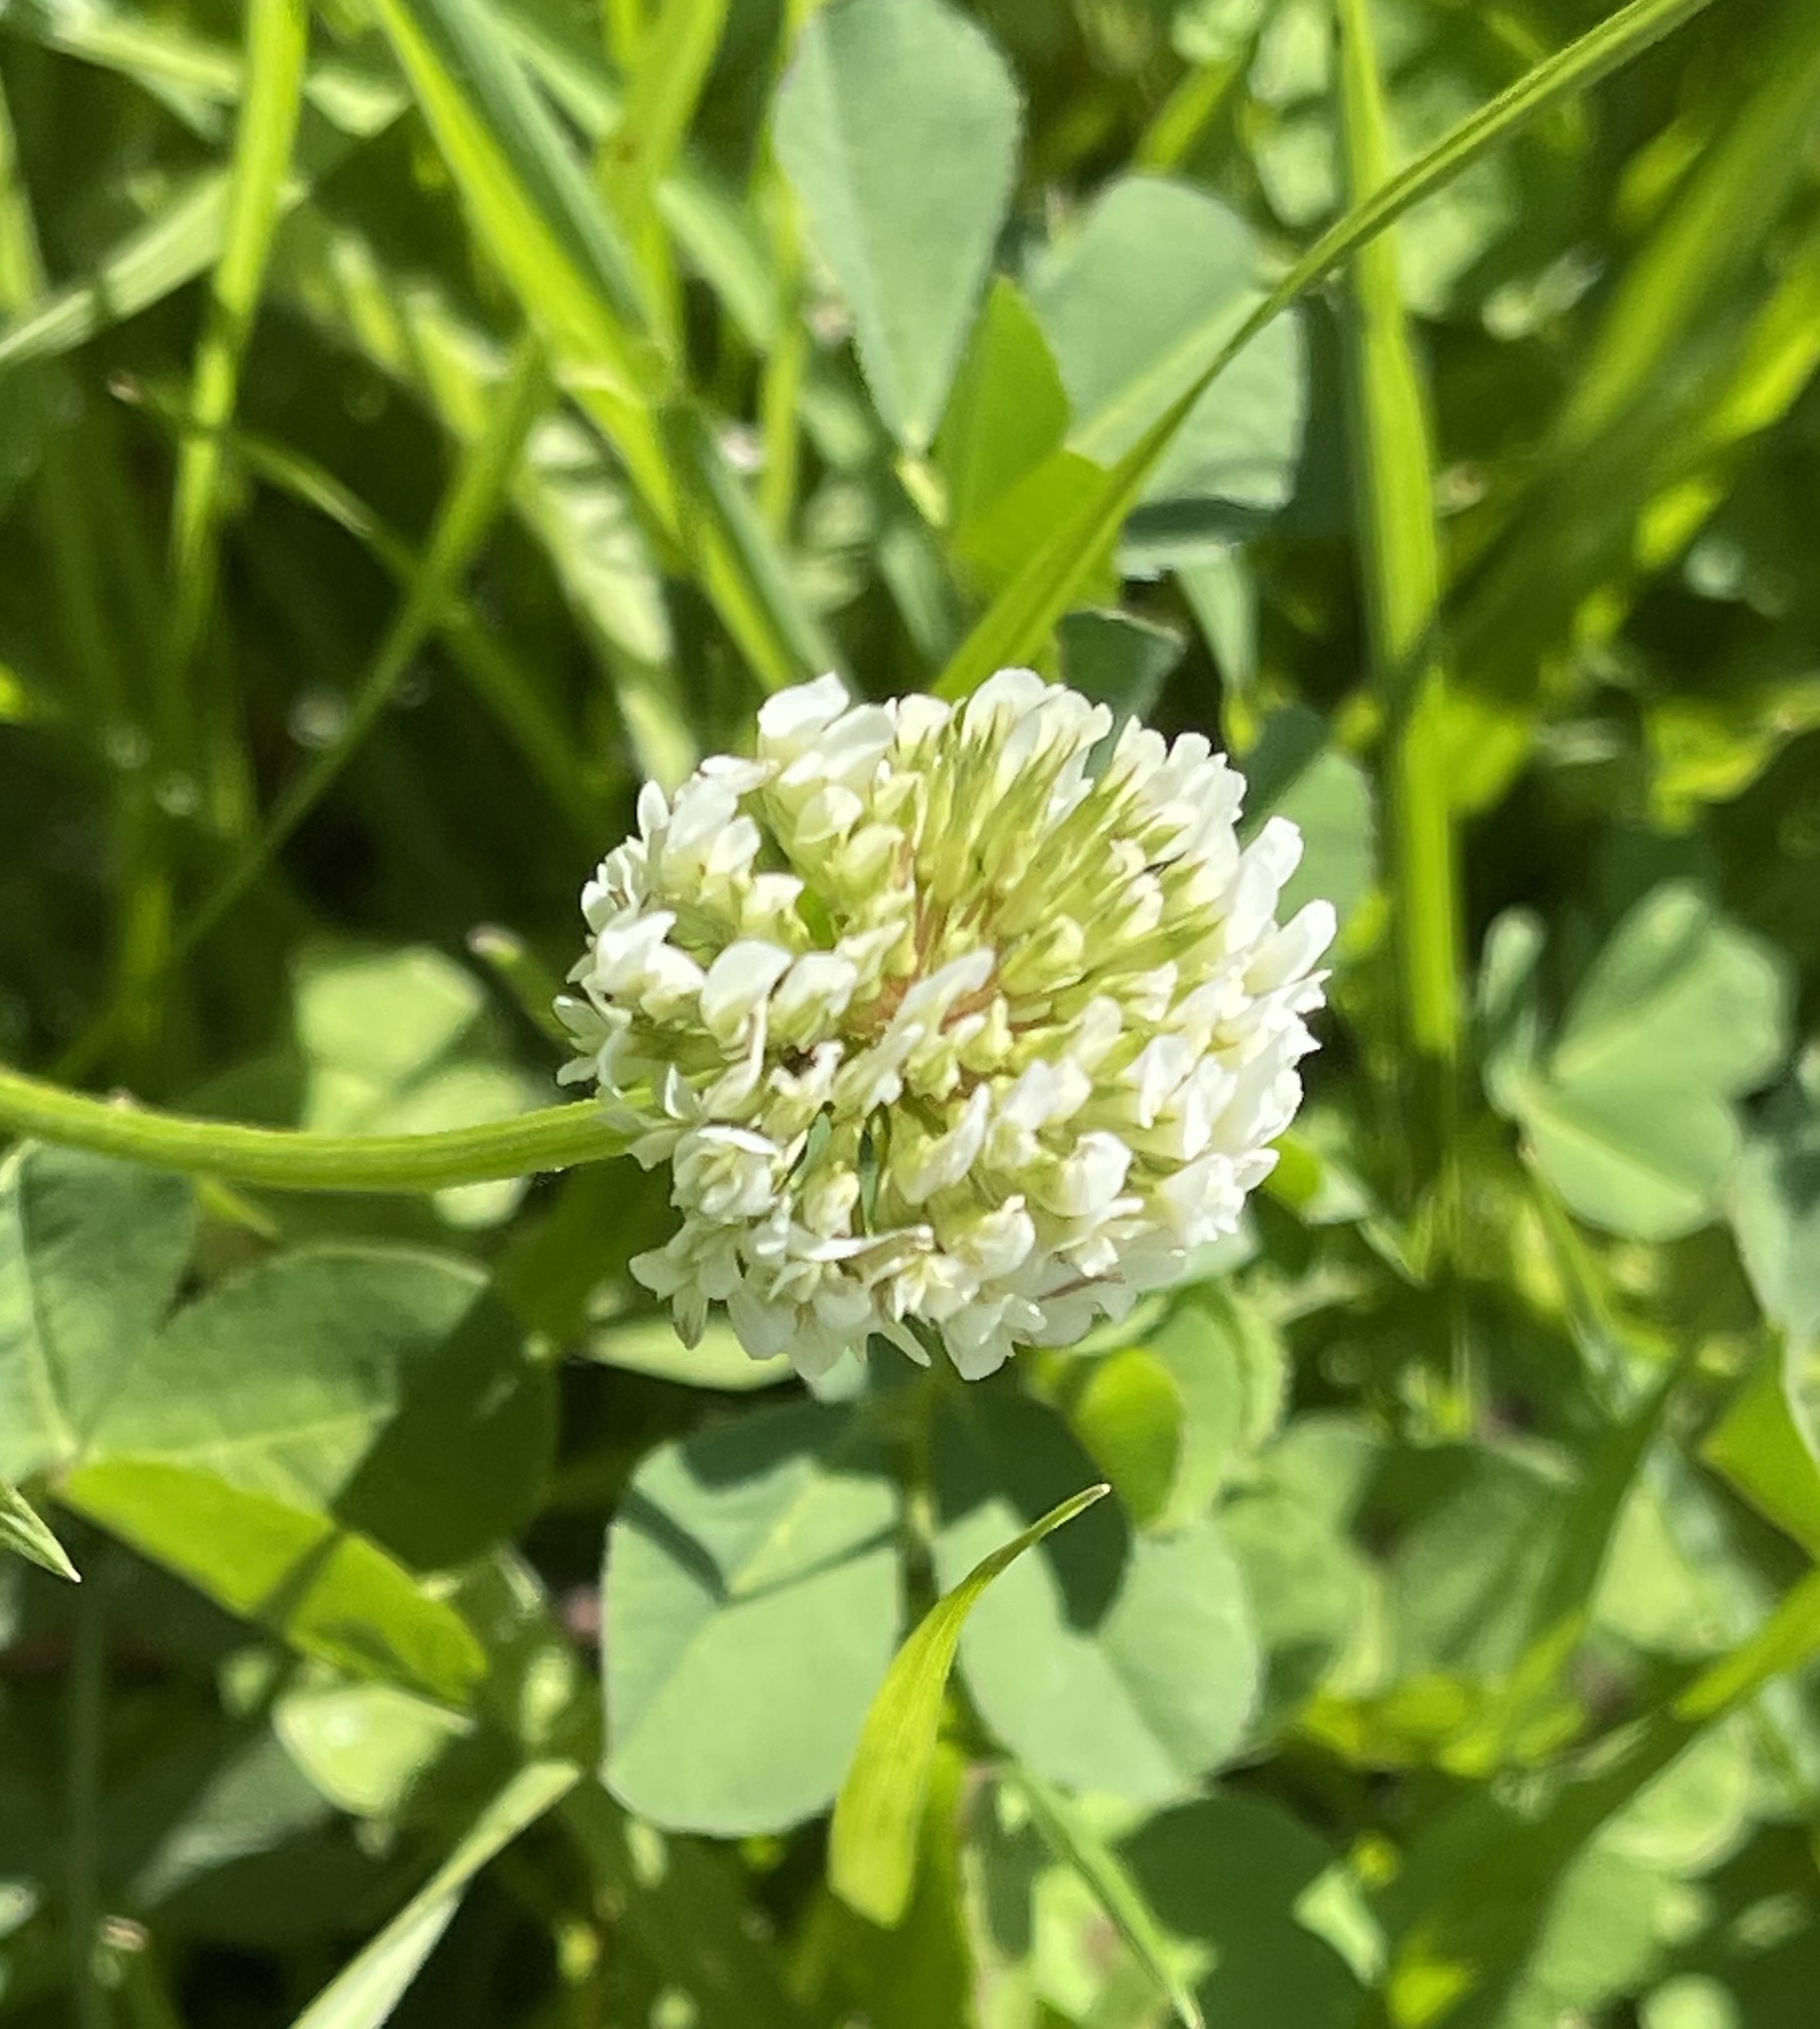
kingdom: Plantae
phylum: Tracheophyta
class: Magnoliopsida
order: Fabales
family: Fabaceae
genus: Trifolium
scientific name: Trifolium repens
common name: White clover
